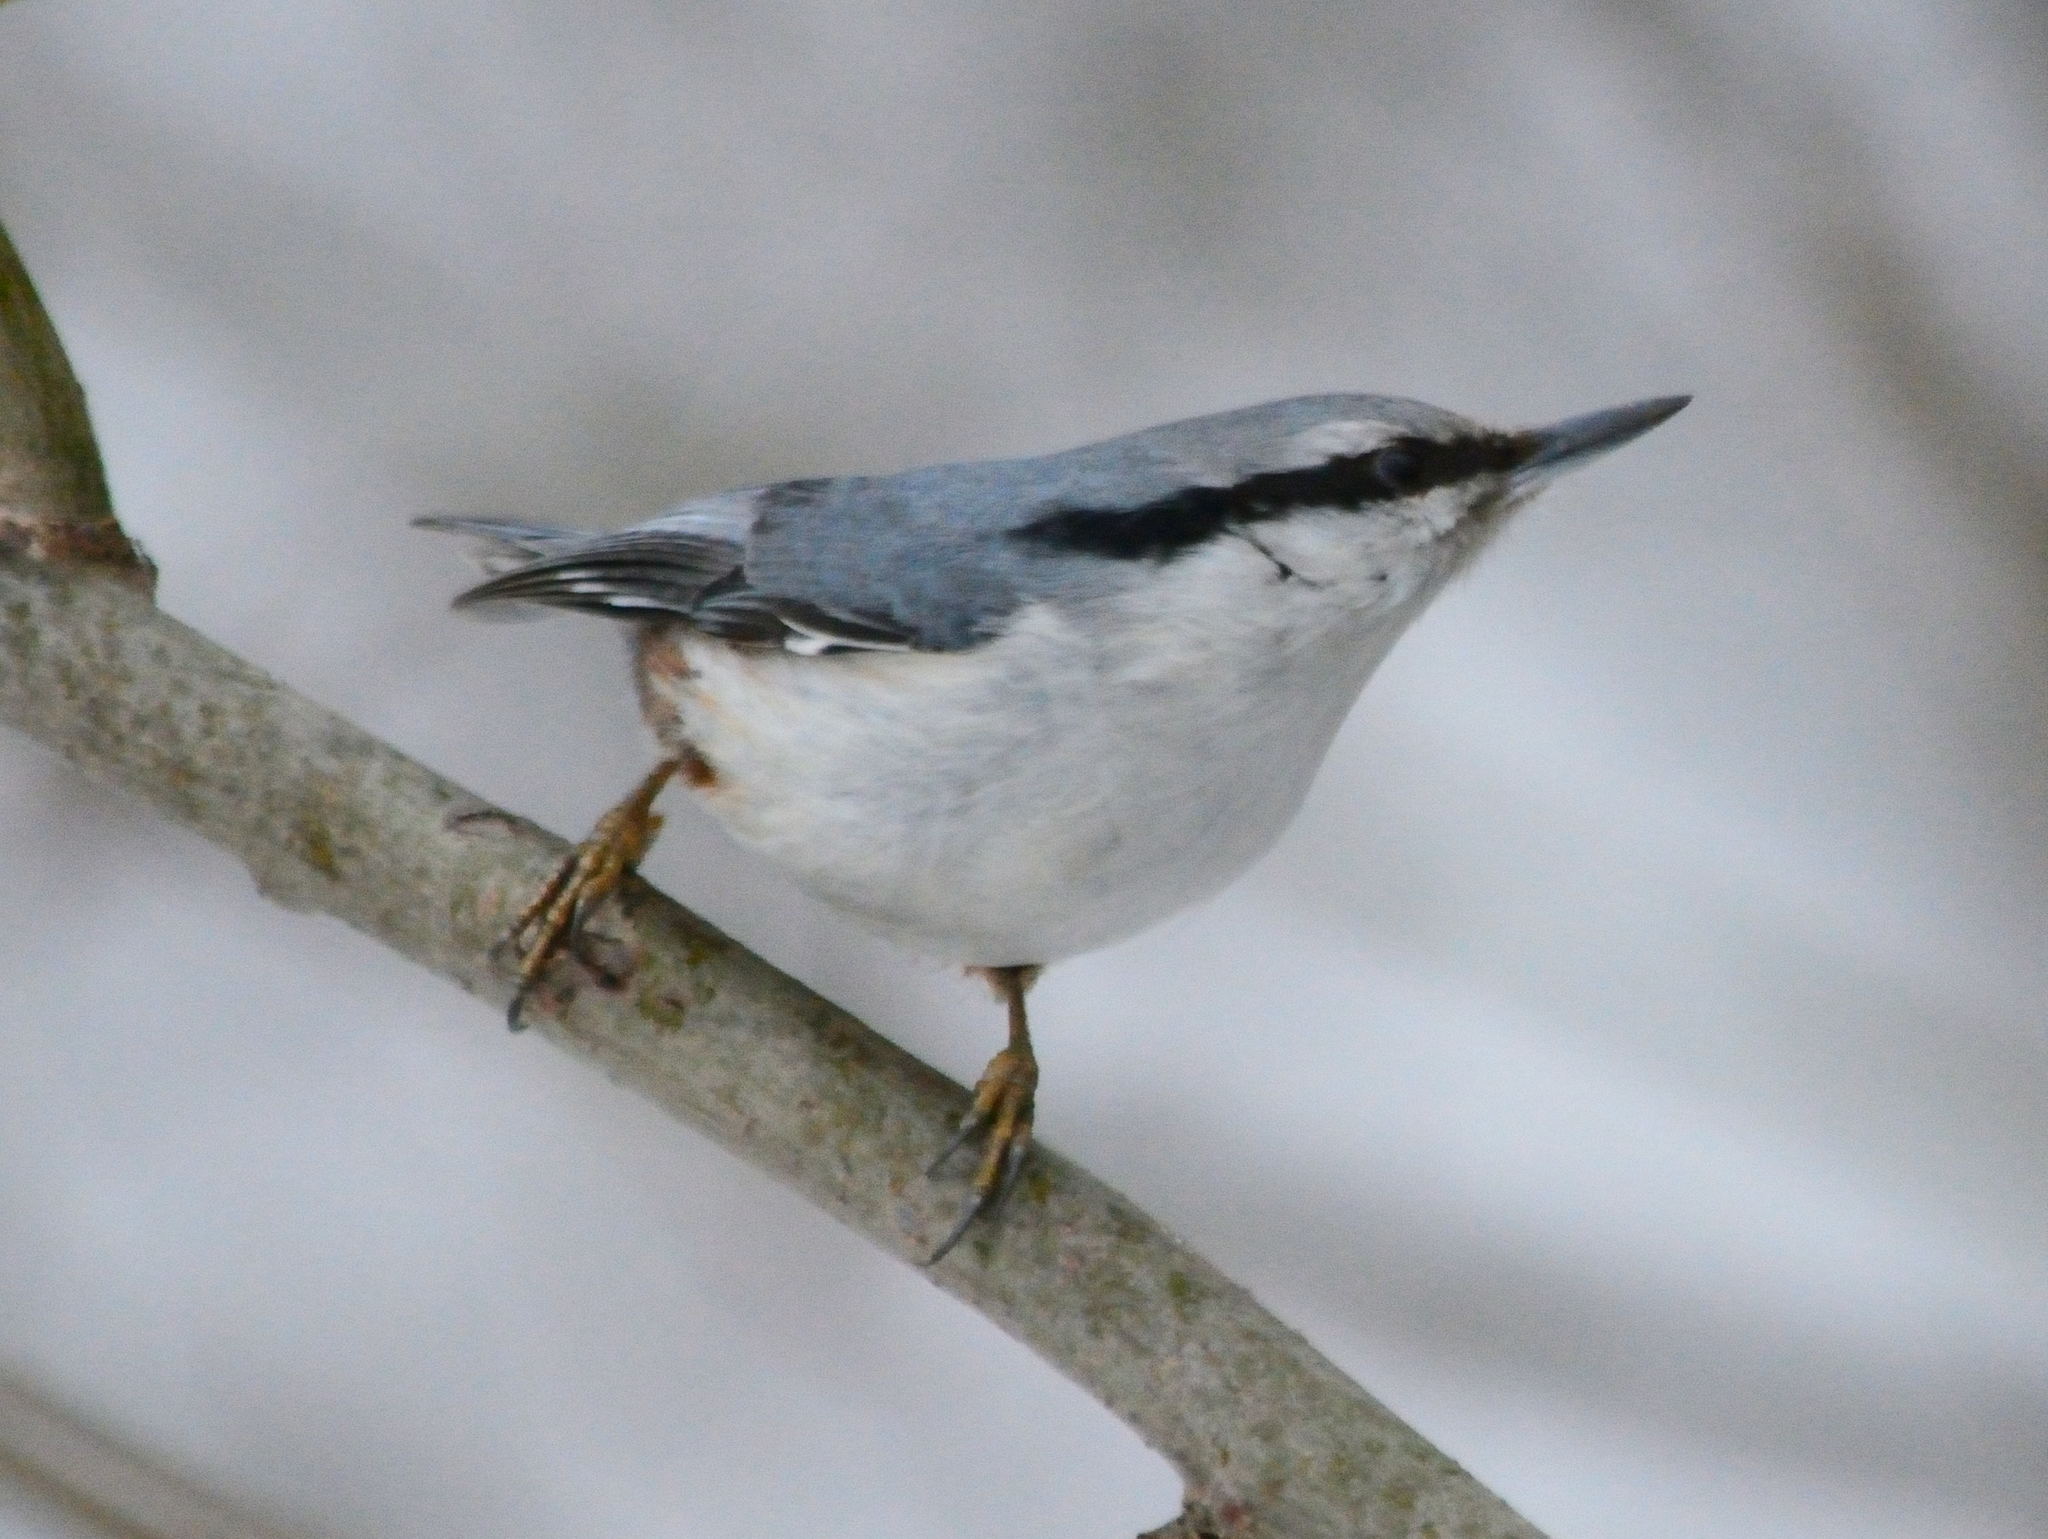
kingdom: Animalia
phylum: Chordata
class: Aves
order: Passeriformes
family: Sittidae
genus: Sitta
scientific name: Sitta europaea
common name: Eurasian nuthatch
